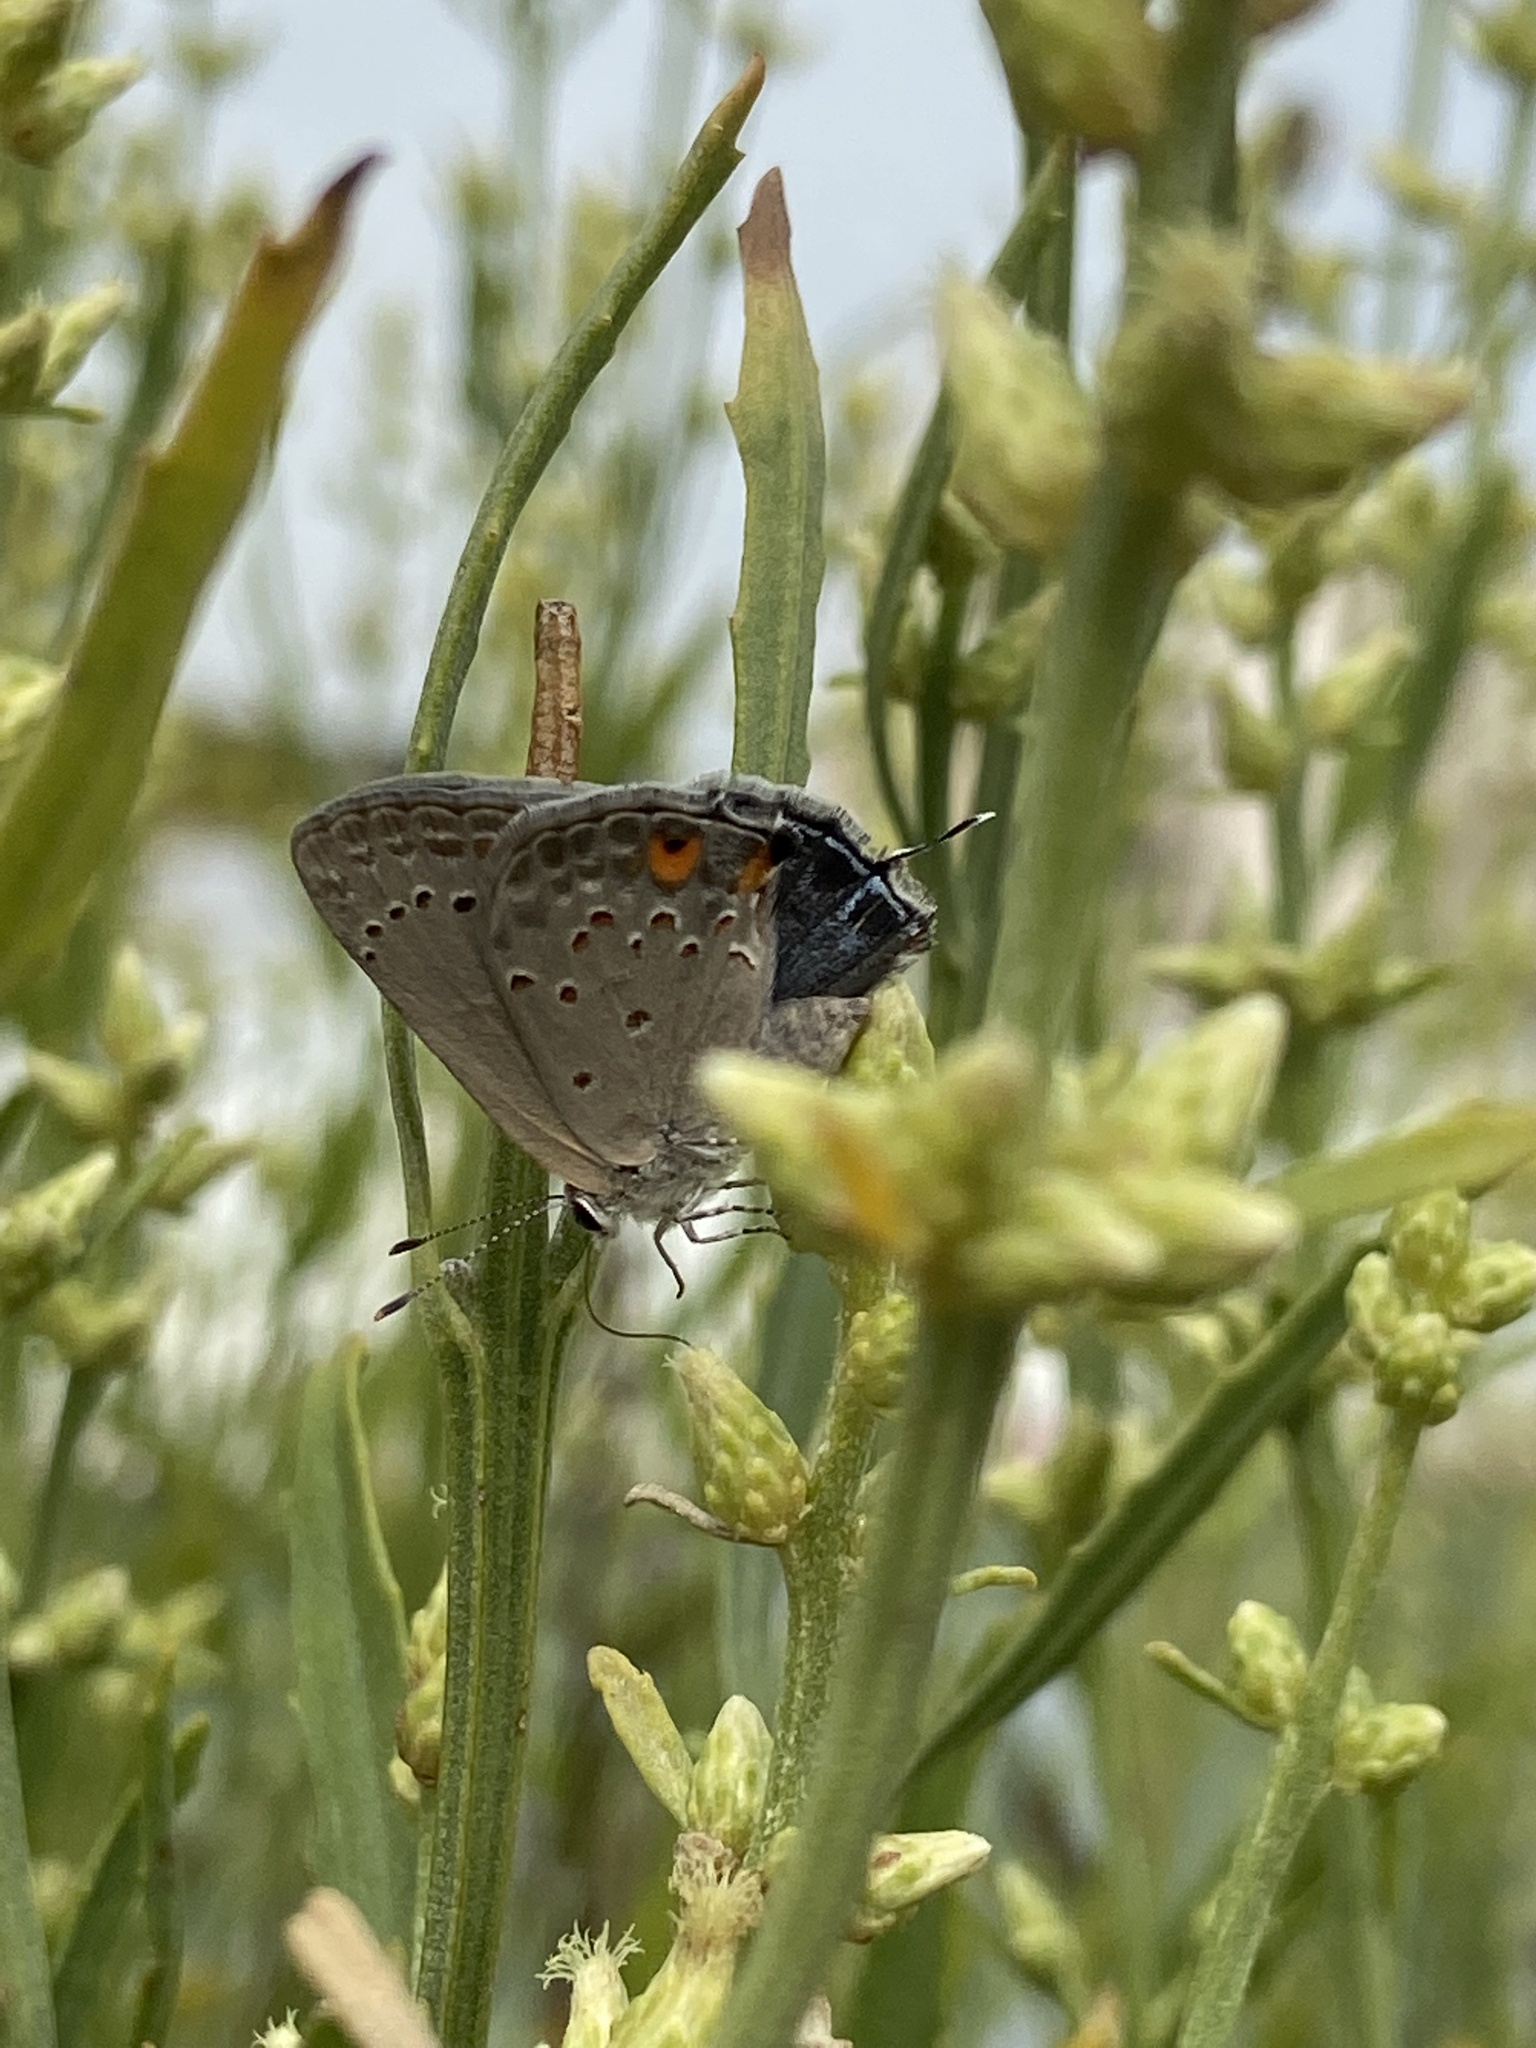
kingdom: Animalia
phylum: Arthropoda
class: Insecta
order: Lepidoptera
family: Lycaenidae
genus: Strymon
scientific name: Strymon eurytulus
